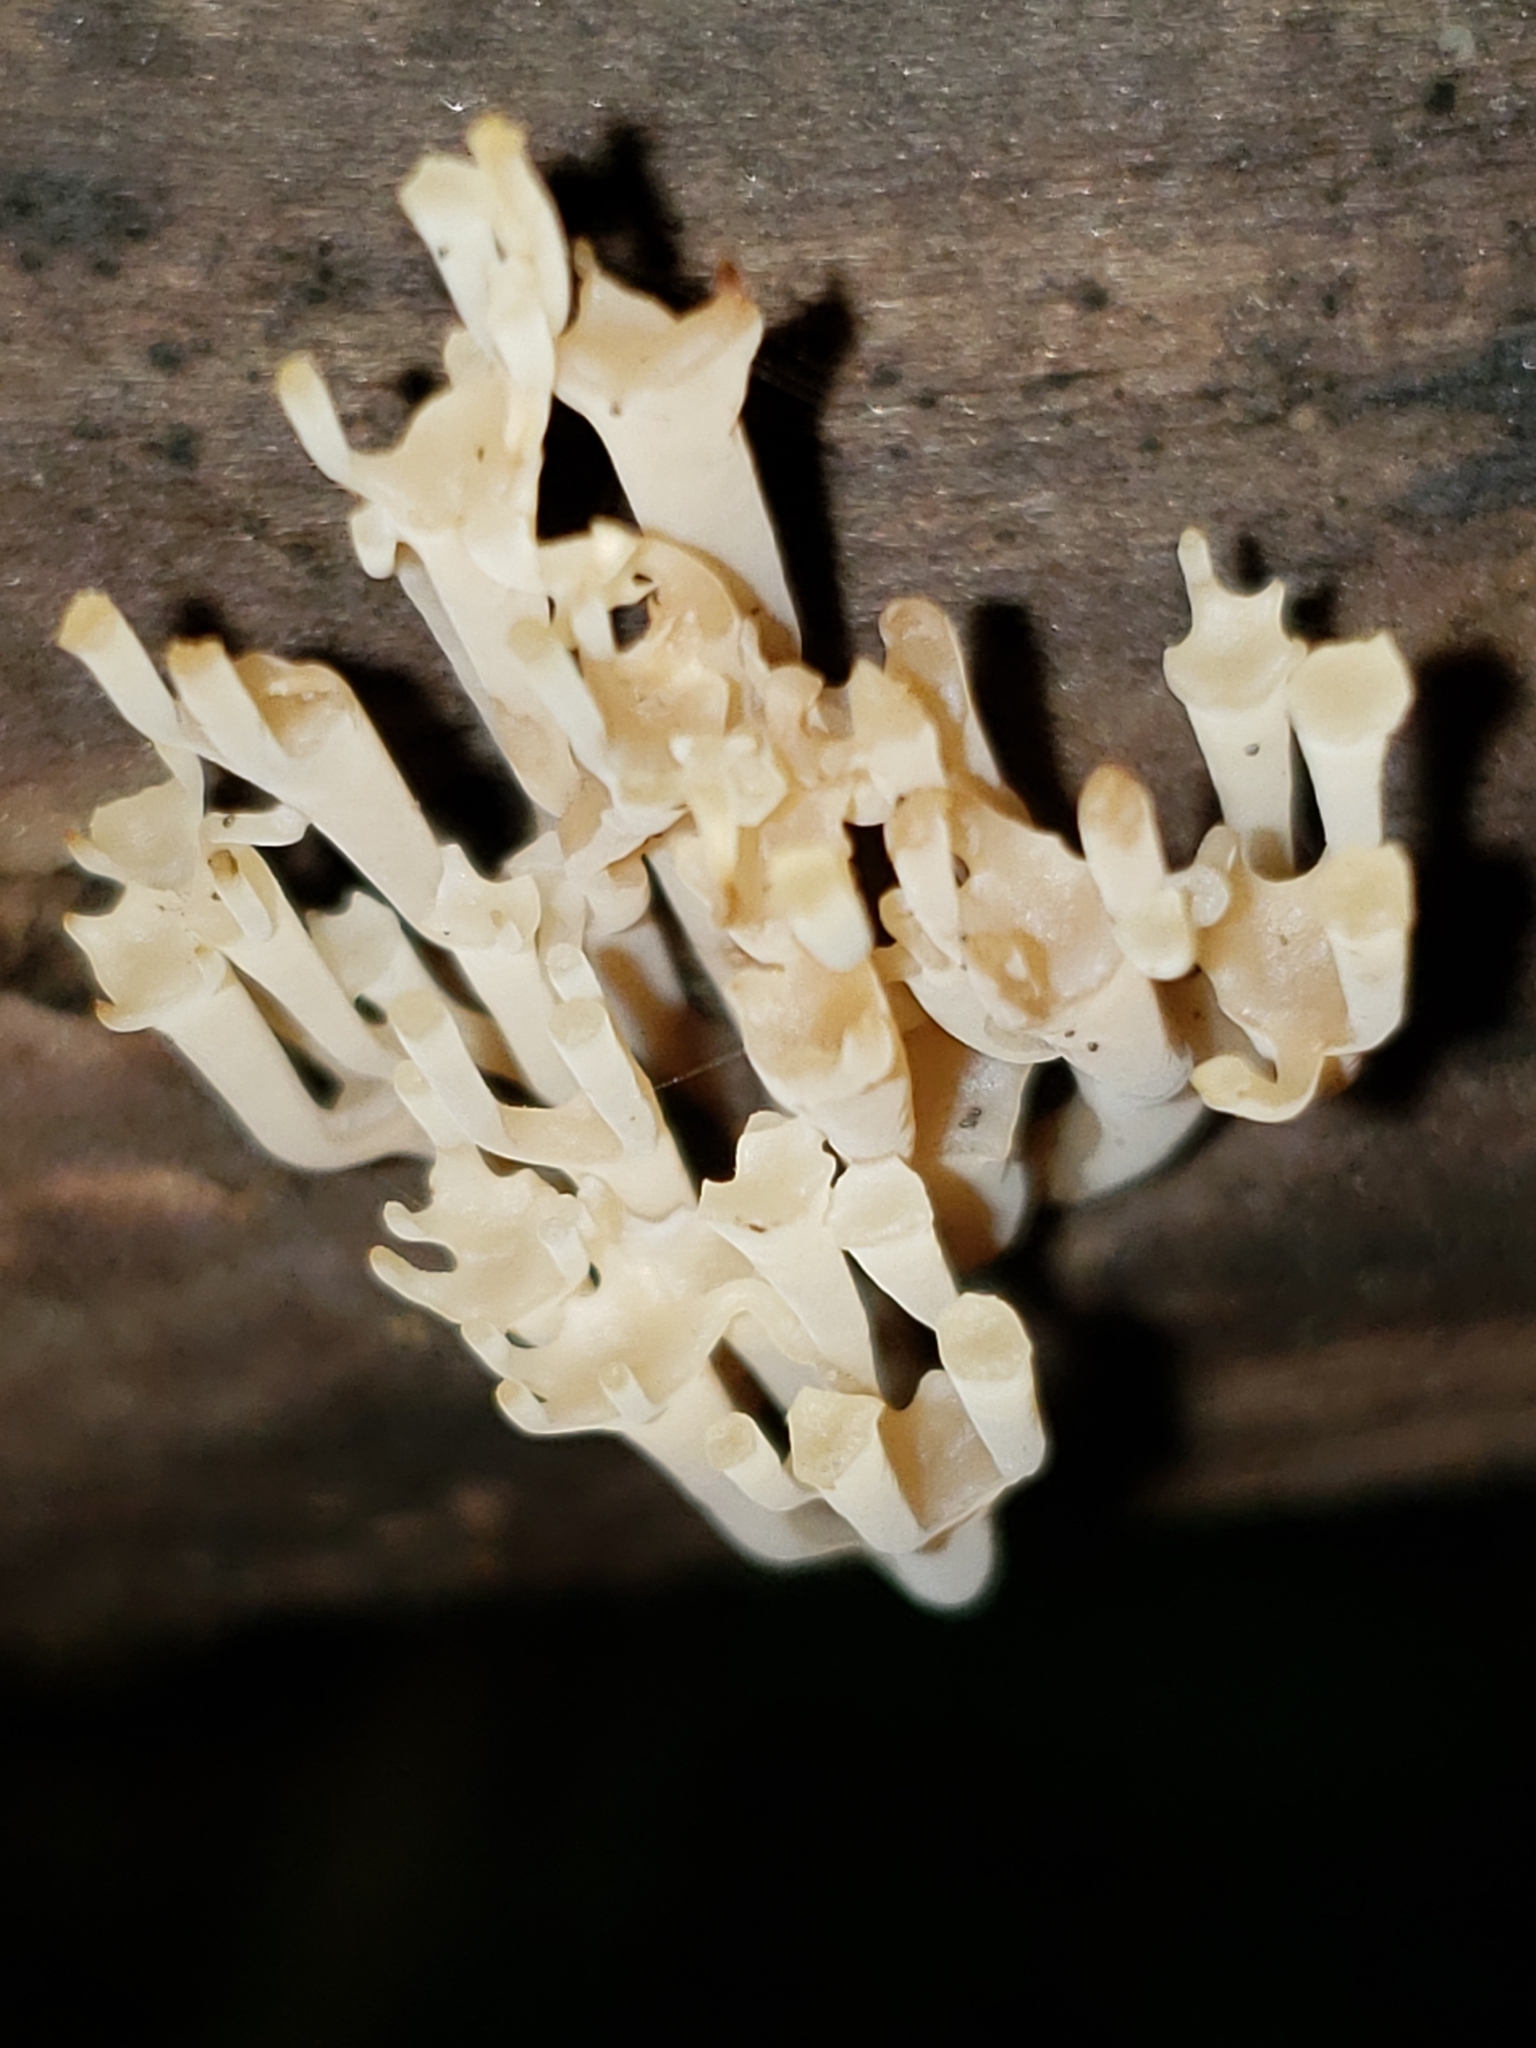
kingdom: Fungi
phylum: Basidiomycota
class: Agaricomycetes
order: Russulales
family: Auriscalpiaceae
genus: Artomyces
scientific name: Artomyces pyxidatus
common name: Crown-tipped coral fungus
